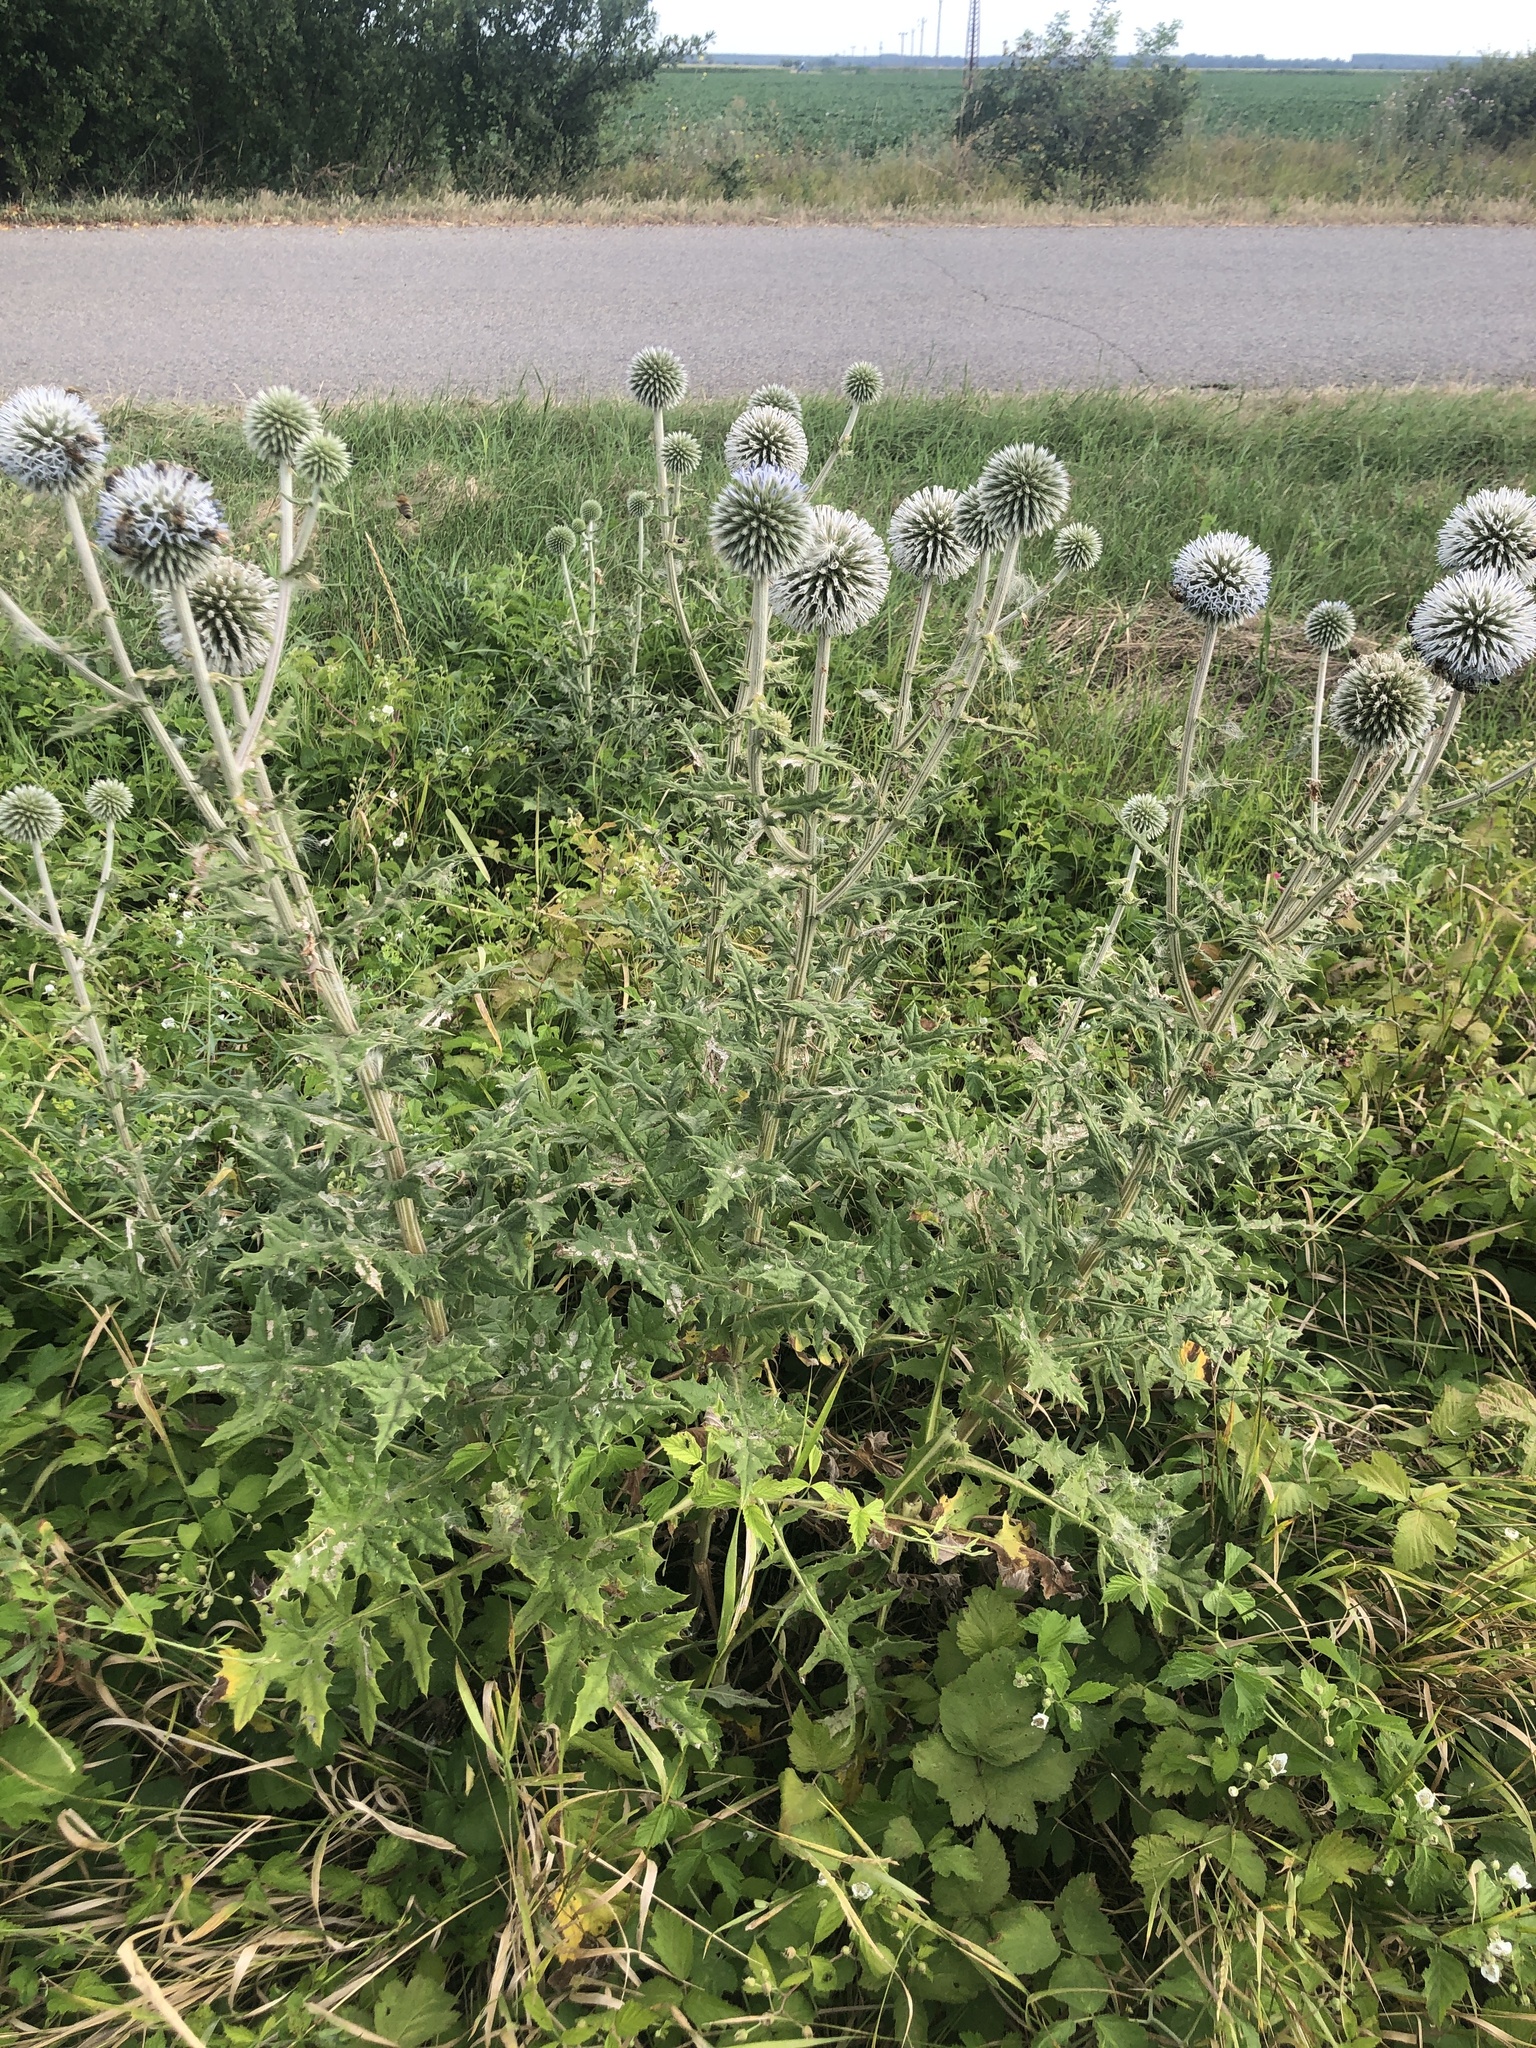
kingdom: Plantae
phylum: Tracheophyta
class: Magnoliopsida
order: Asterales
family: Asteraceae
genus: Echinops
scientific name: Echinops sphaerocephalus
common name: Glandular globe-thistle
